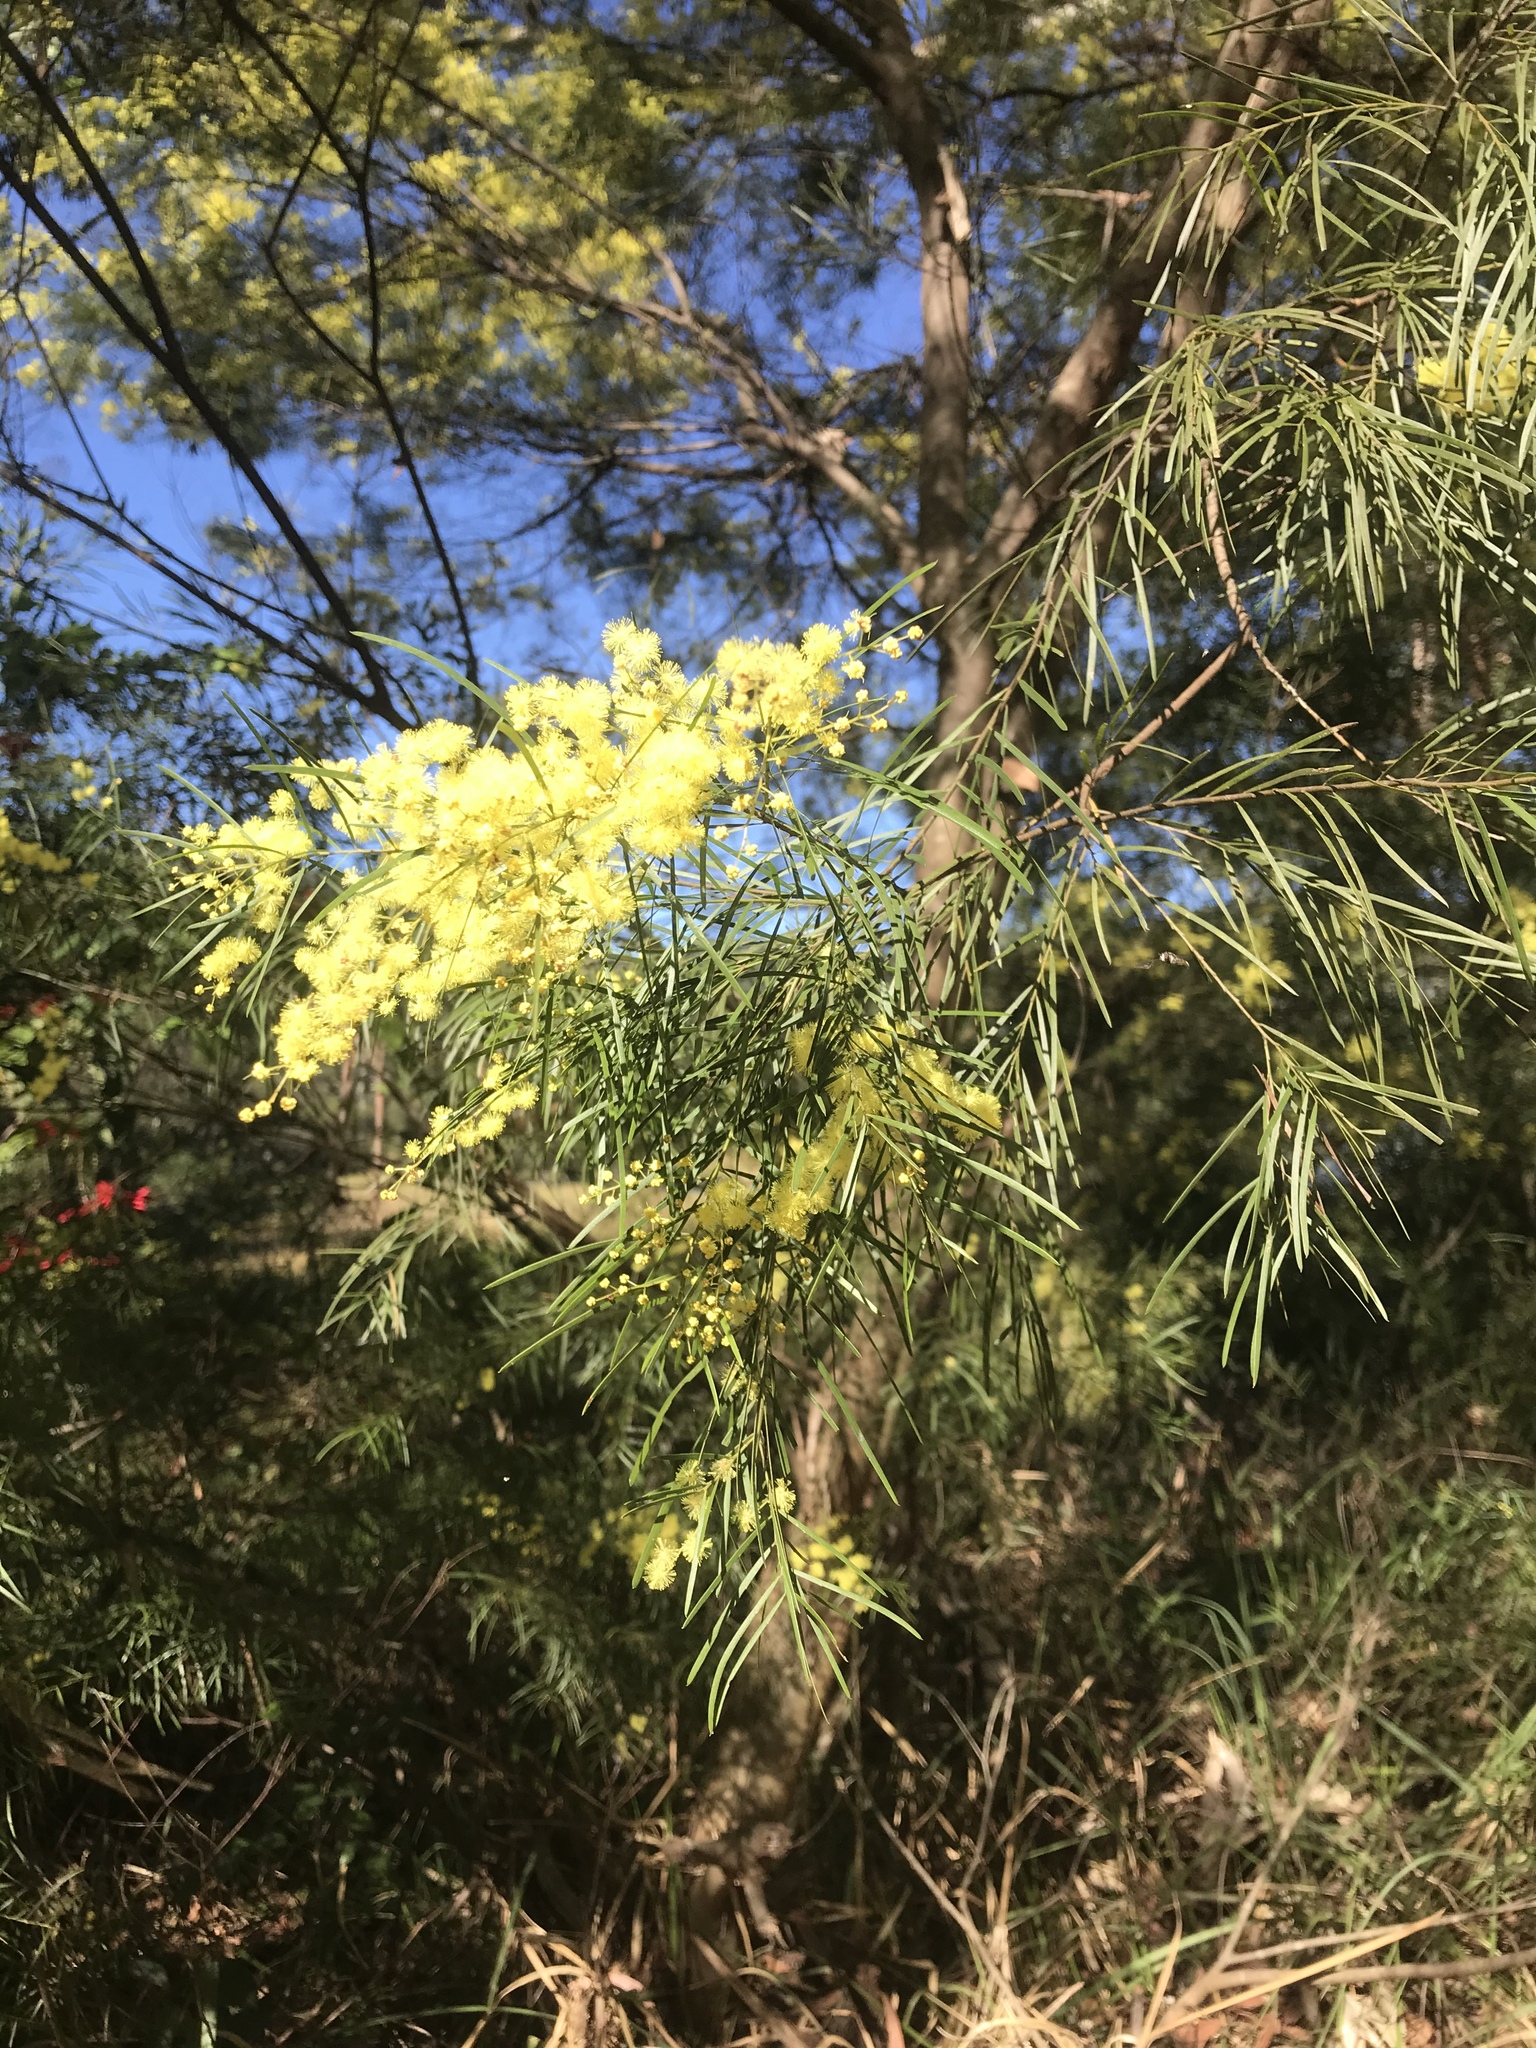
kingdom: Plantae
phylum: Tracheophyta
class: Magnoliopsida
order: Fabales
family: Fabaceae
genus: Acacia
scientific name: Acacia fimbriata
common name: Brisbane golden wattle
